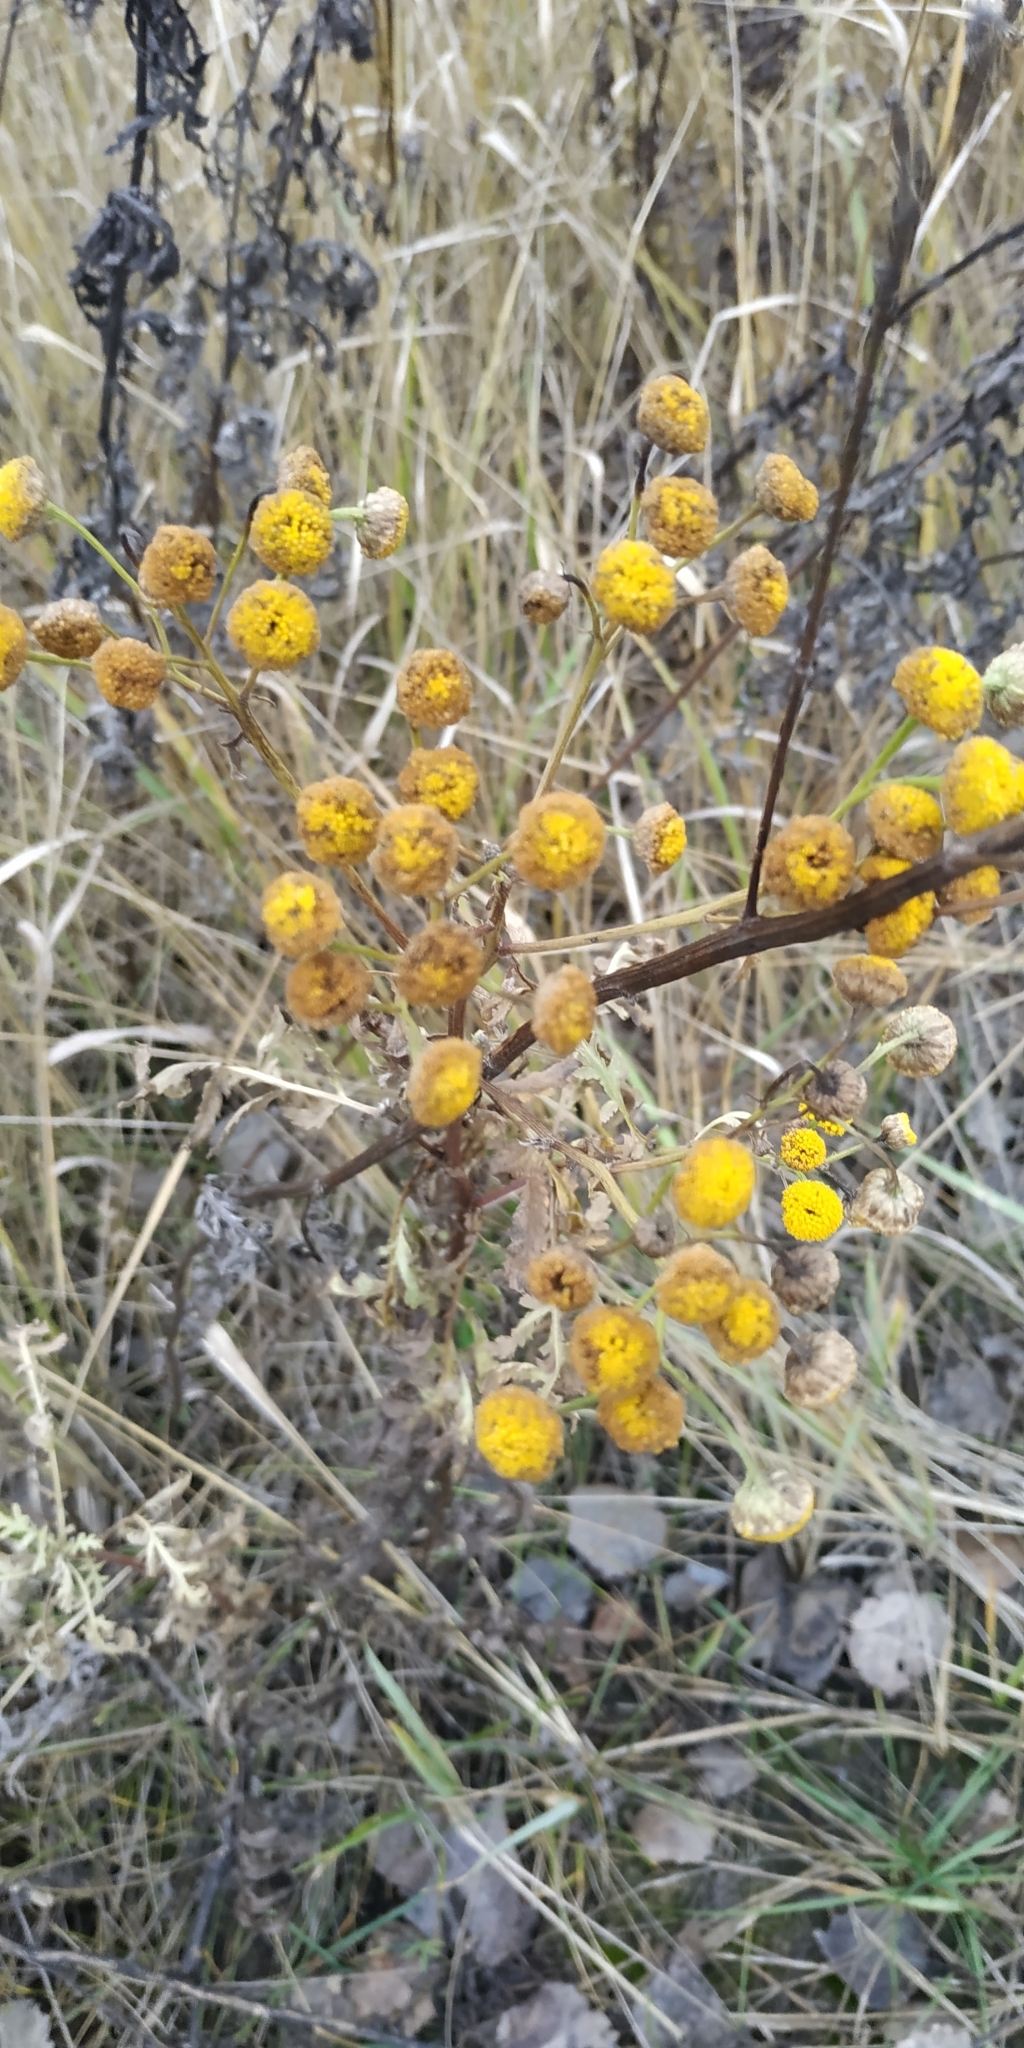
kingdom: Plantae
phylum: Tracheophyta
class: Magnoliopsida
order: Asterales
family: Asteraceae
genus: Tanacetum
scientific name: Tanacetum vulgare
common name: Common tansy
